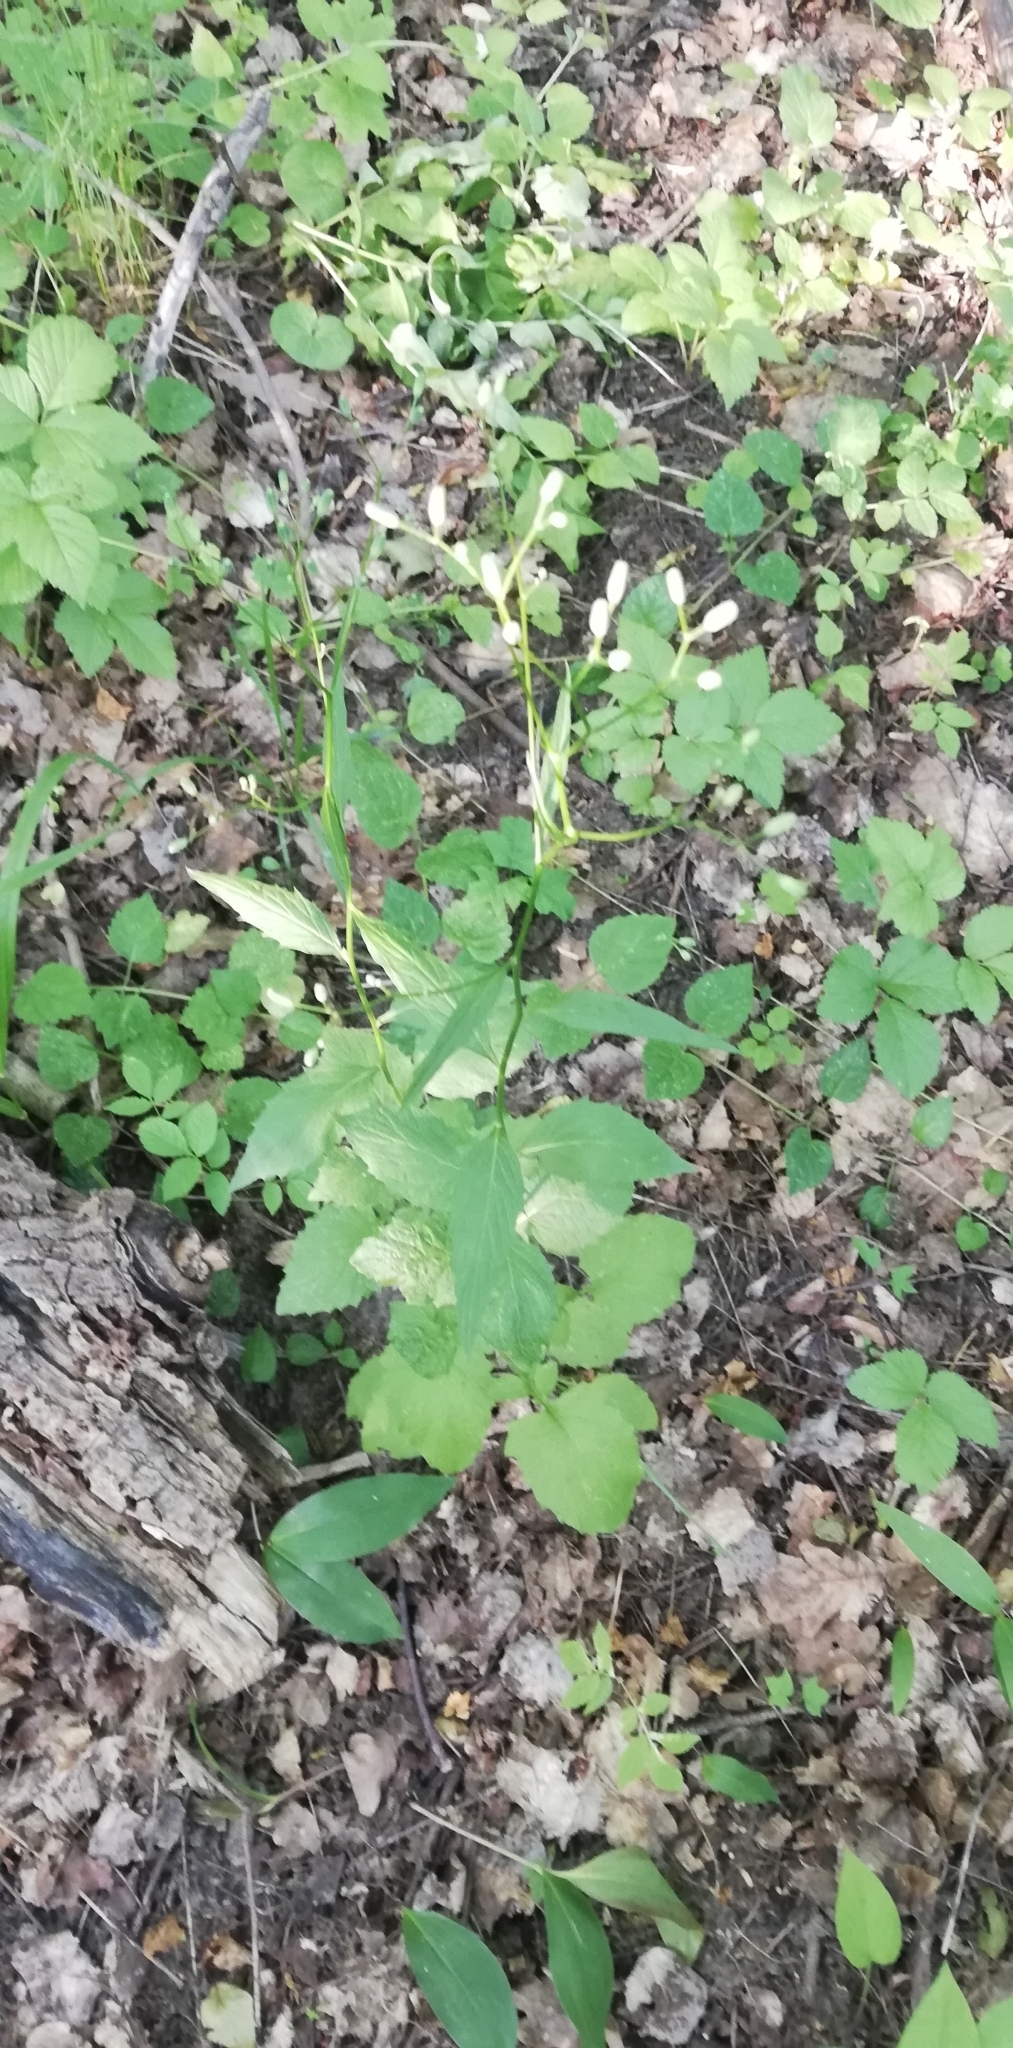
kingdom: Plantae
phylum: Tracheophyta
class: Magnoliopsida
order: Asterales
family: Asteraceae
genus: Lapsana
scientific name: Lapsana communis
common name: Nipplewort
